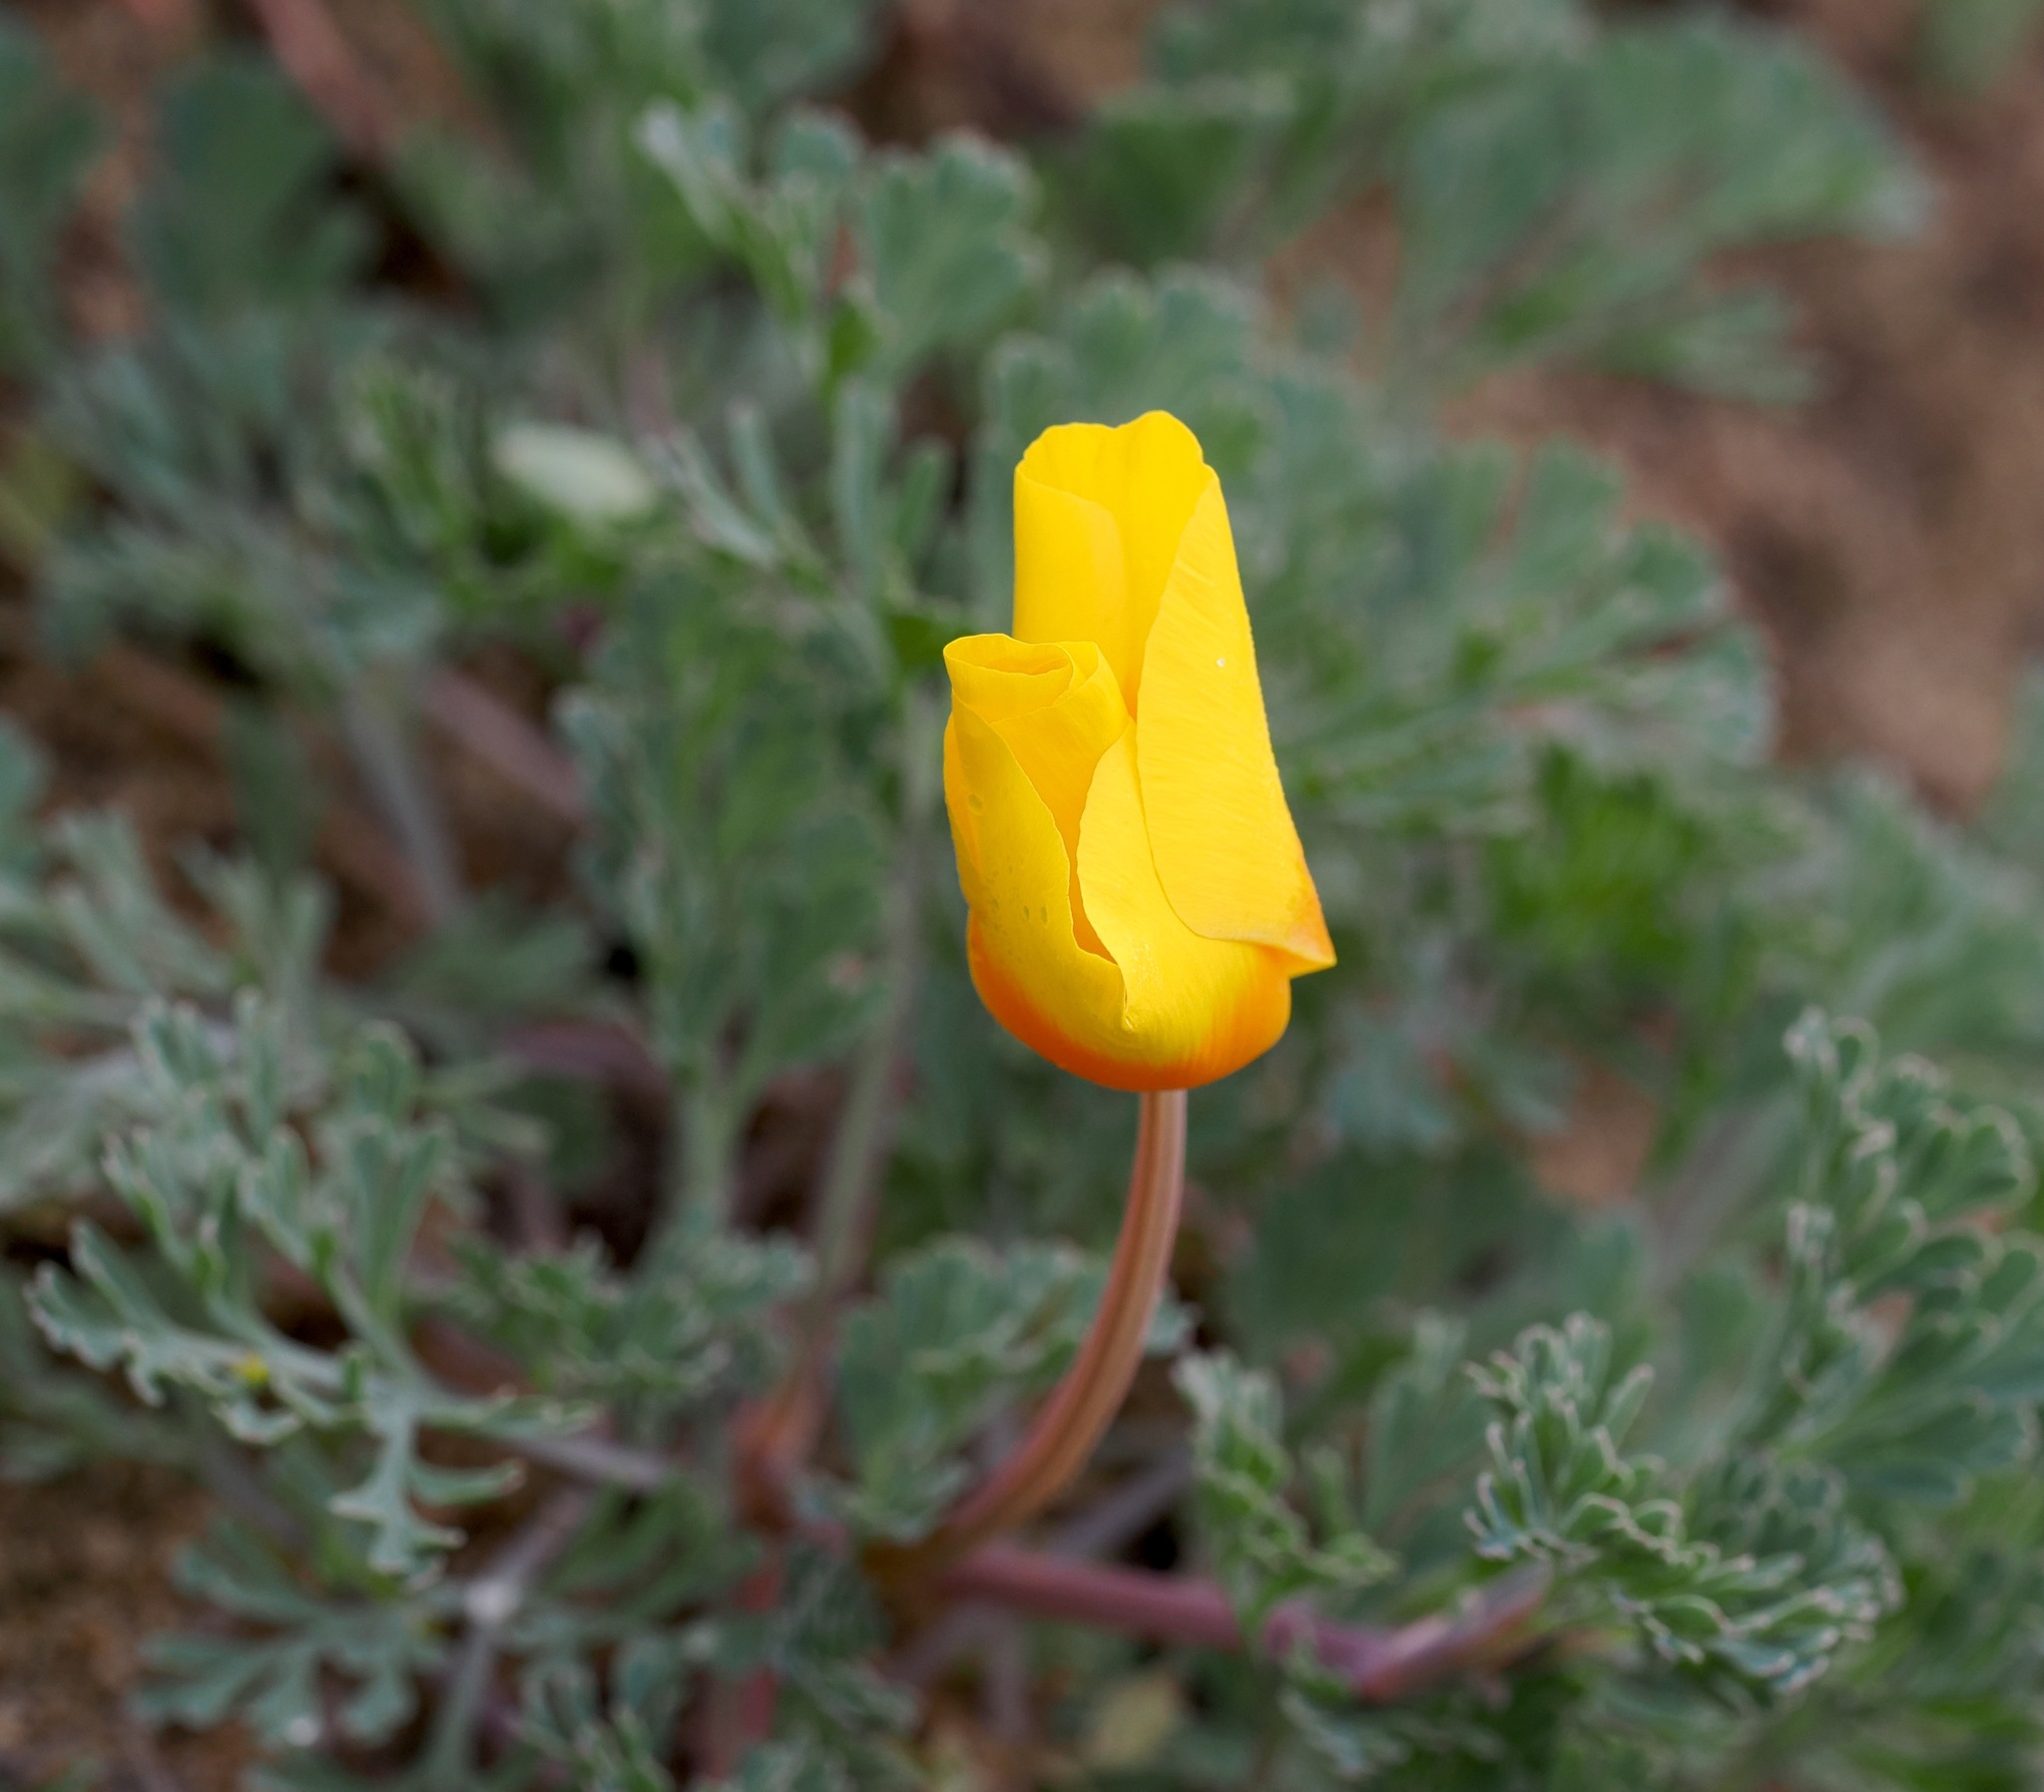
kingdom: Plantae
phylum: Tracheophyta
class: Magnoliopsida
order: Ranunculales
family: Papaveraceae
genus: Eschscholzia
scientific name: Eschscholzia californica
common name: California poppy
